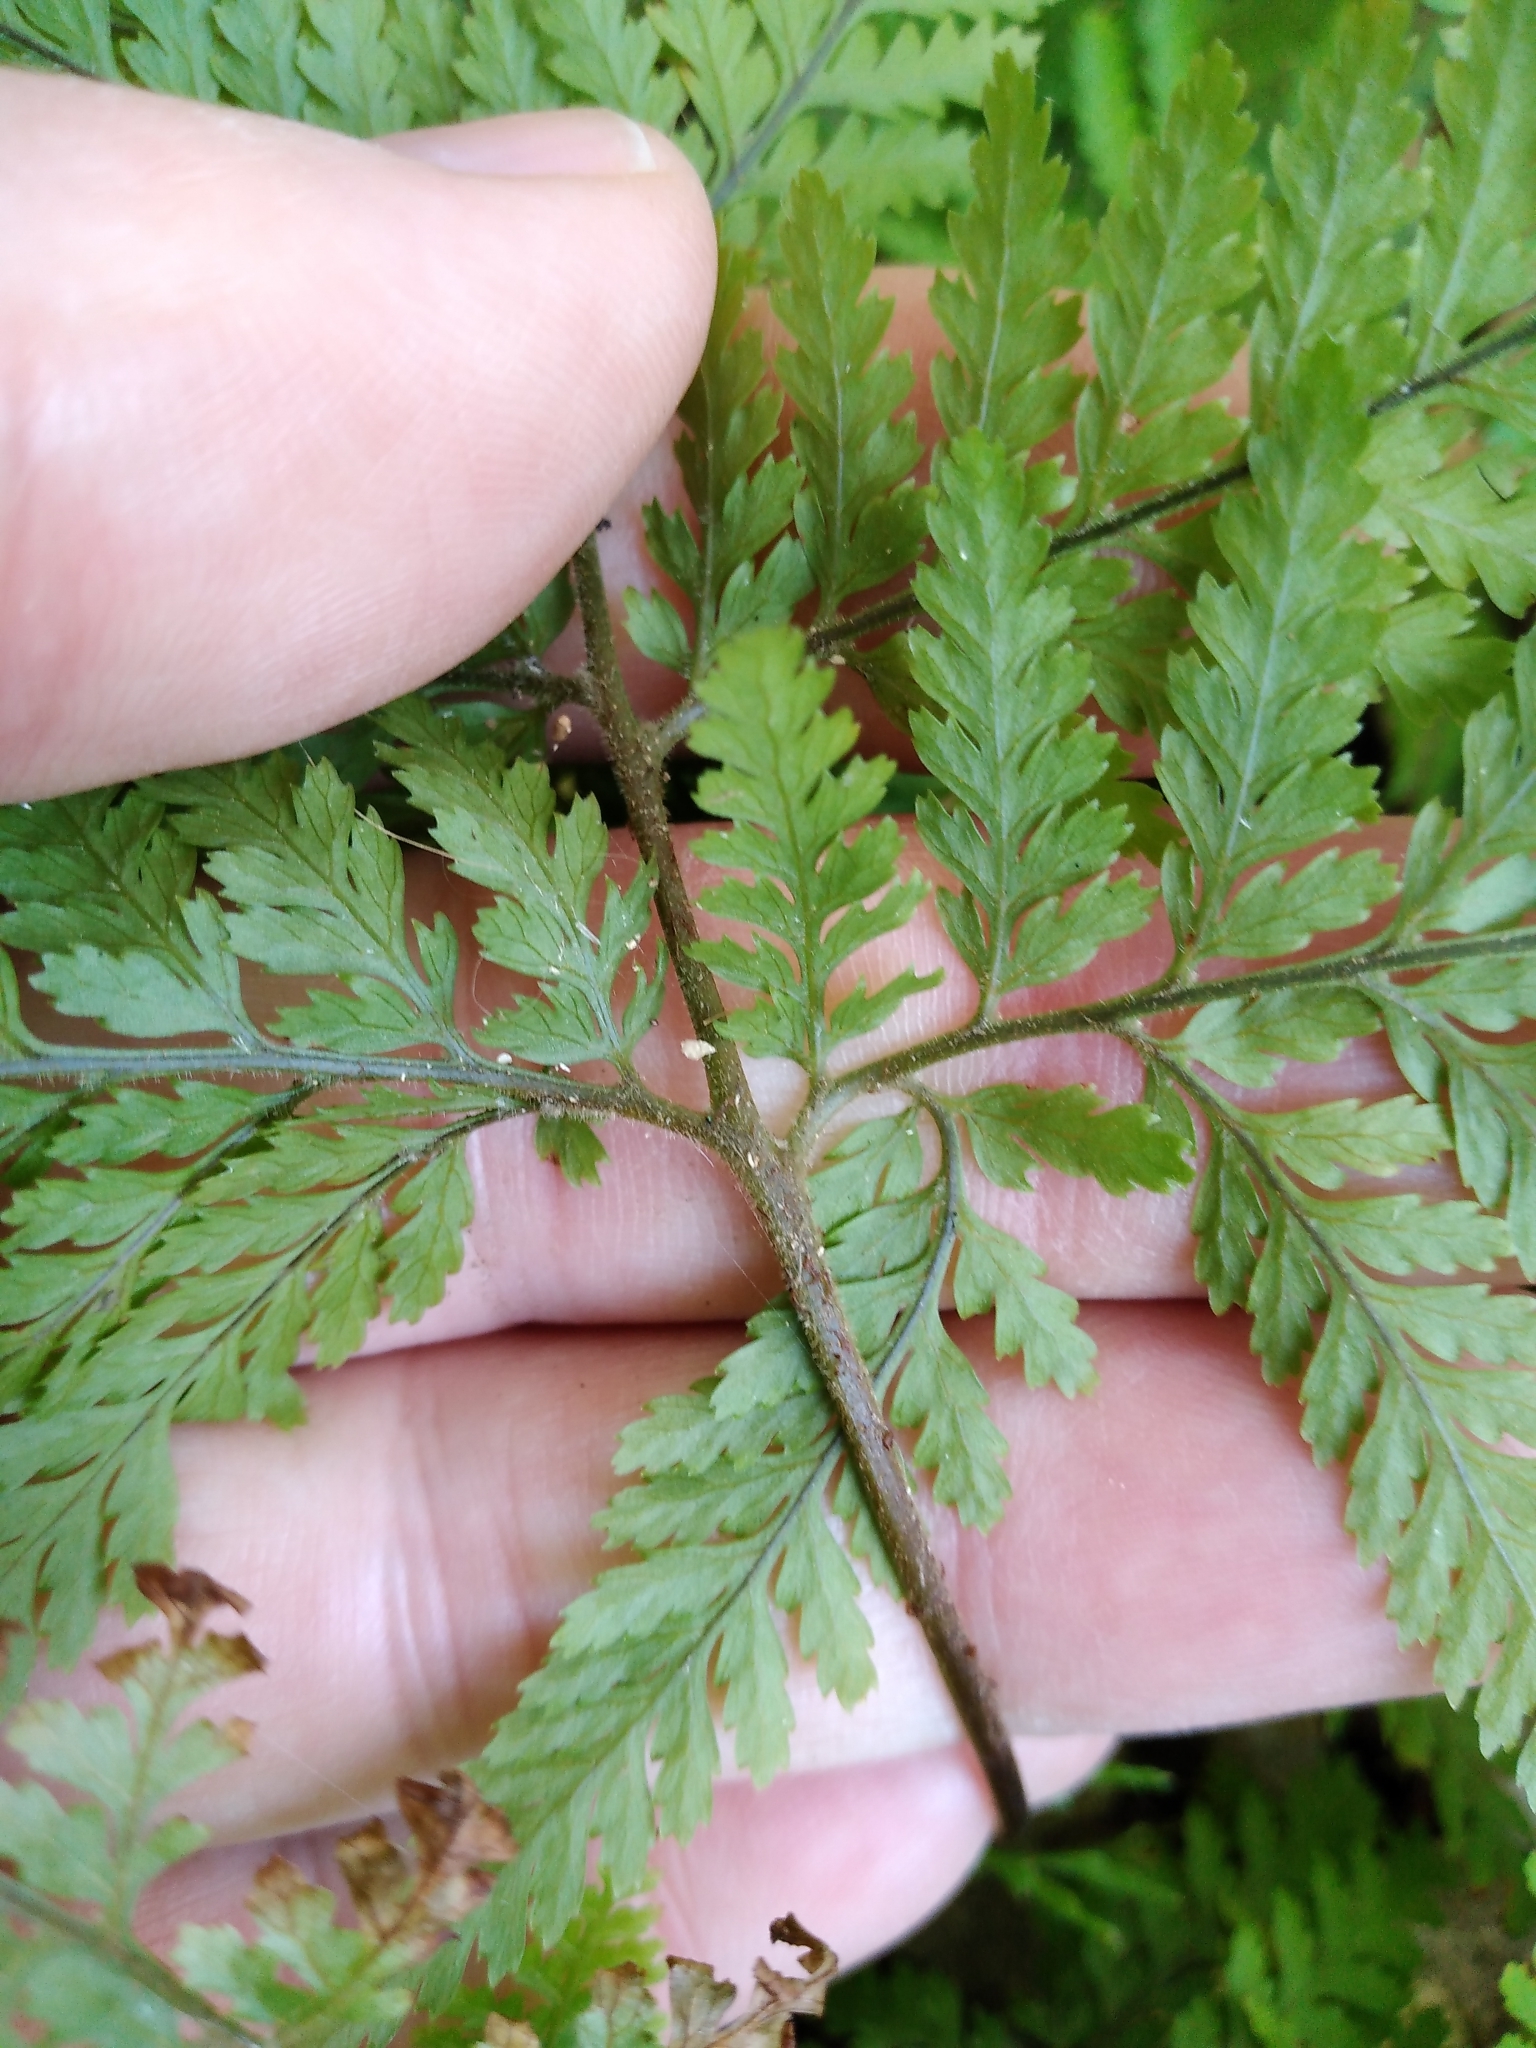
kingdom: Plantae
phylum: Tracheophyta
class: Polypodiopsida
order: Polypodiales
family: Dryopteridaceae
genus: Parapolystichum
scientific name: Parapolystichum microsorum
